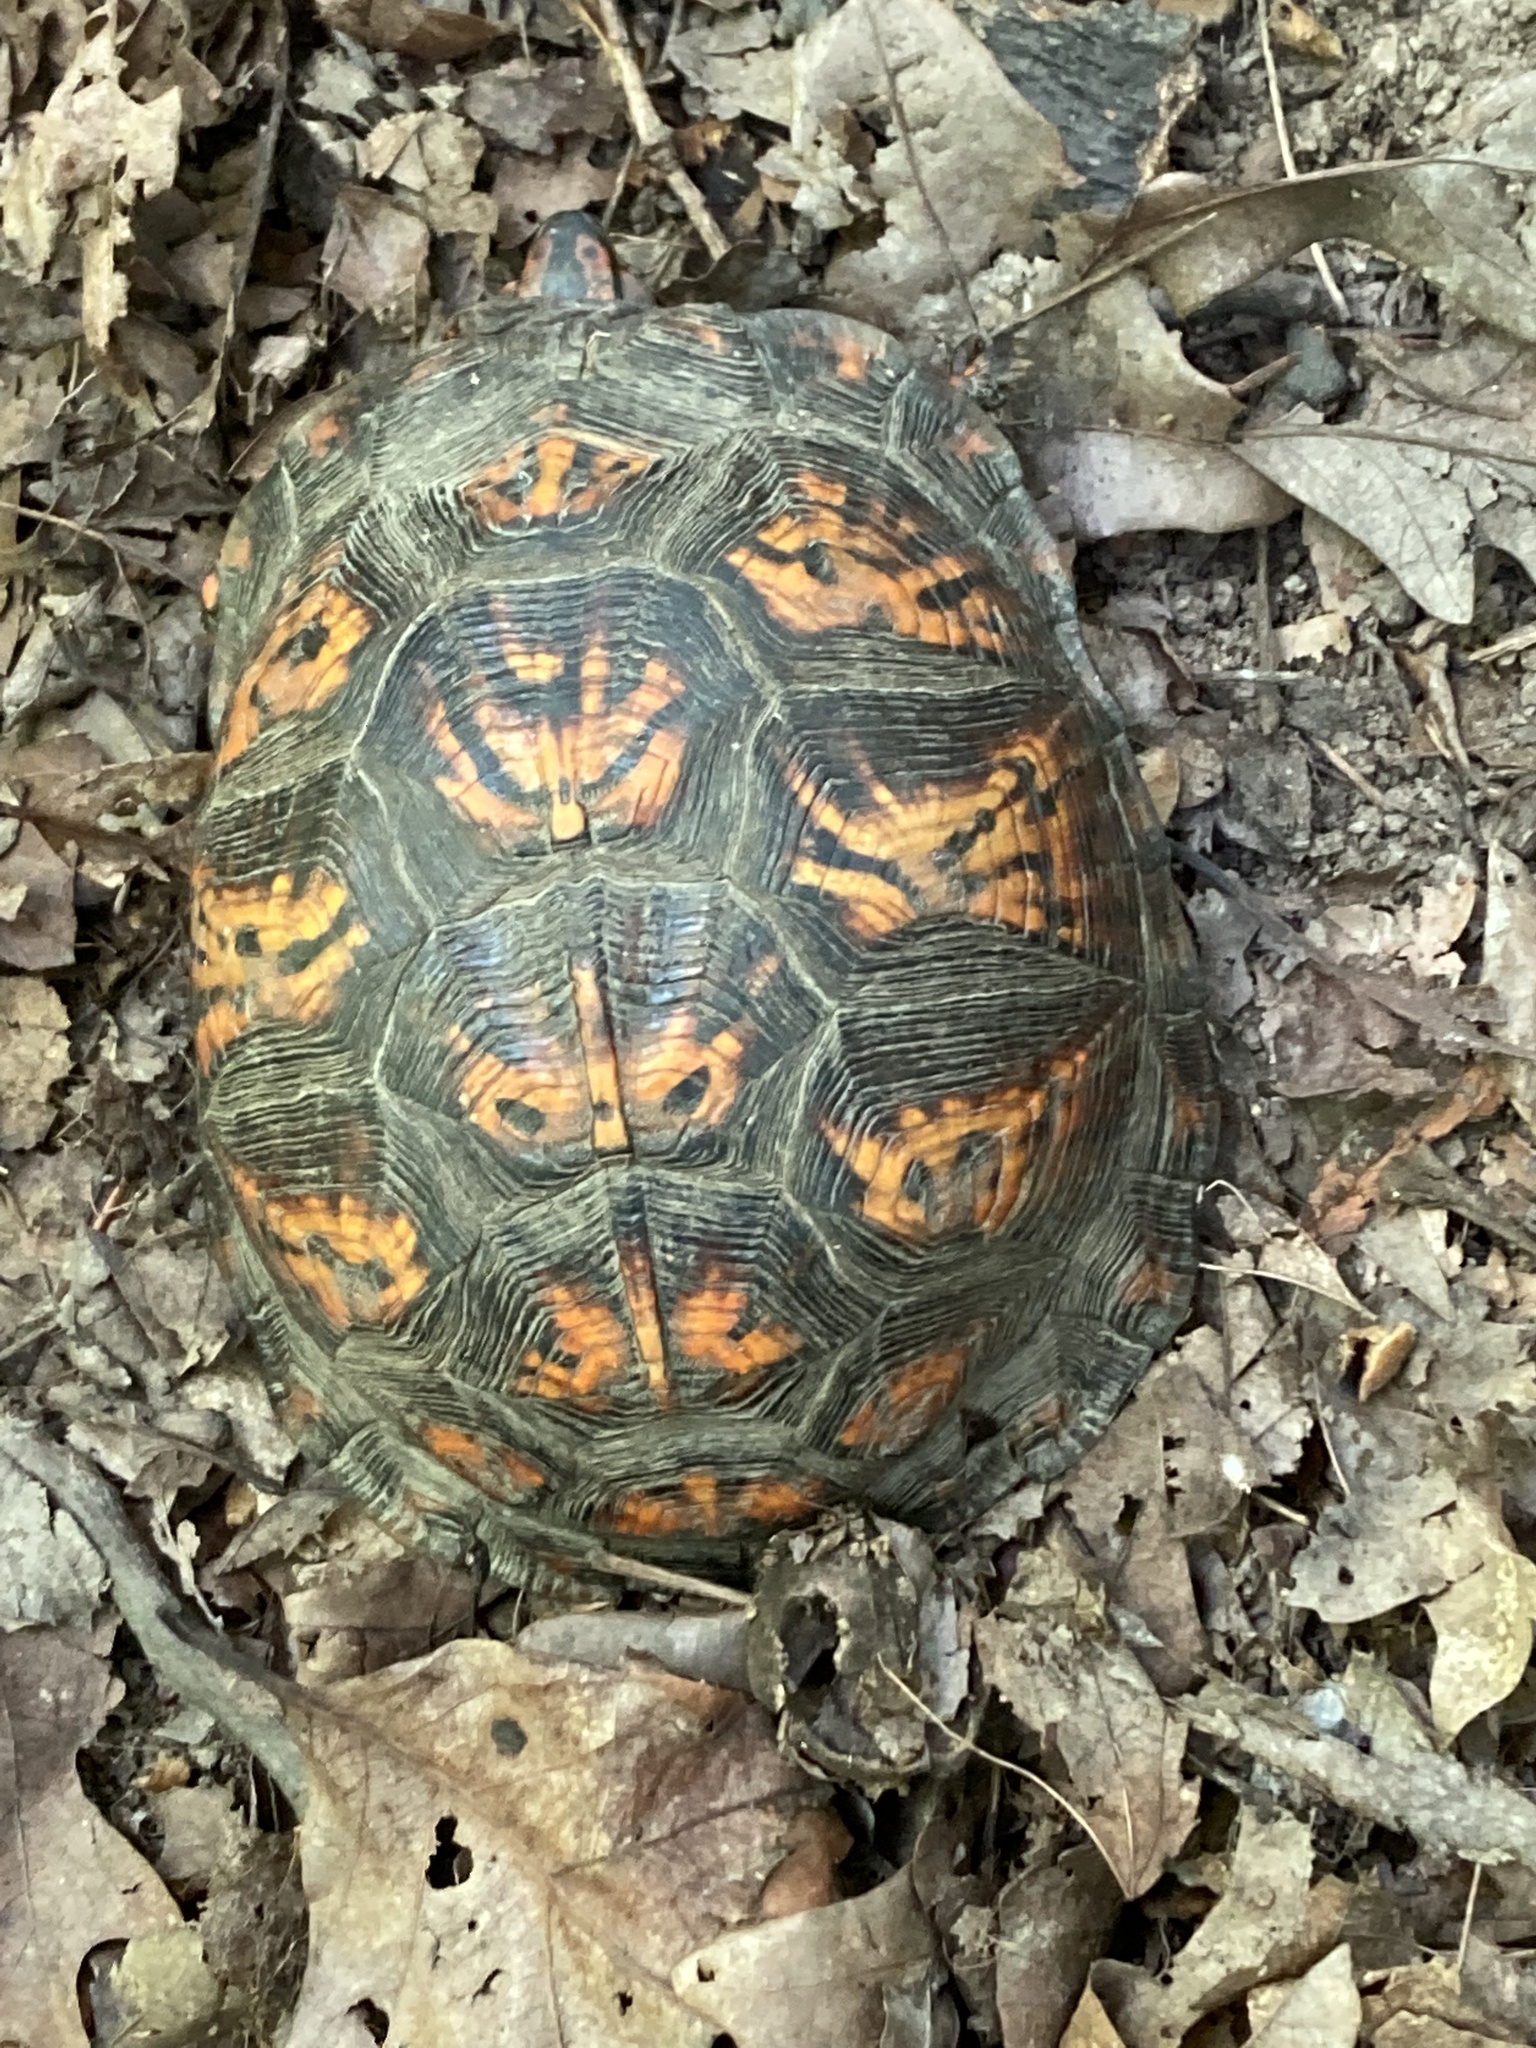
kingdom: Animalia
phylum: Chordata
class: Testudines
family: Emydidae
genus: Terrapene
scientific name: Terrapene carolina
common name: Common box turtle
